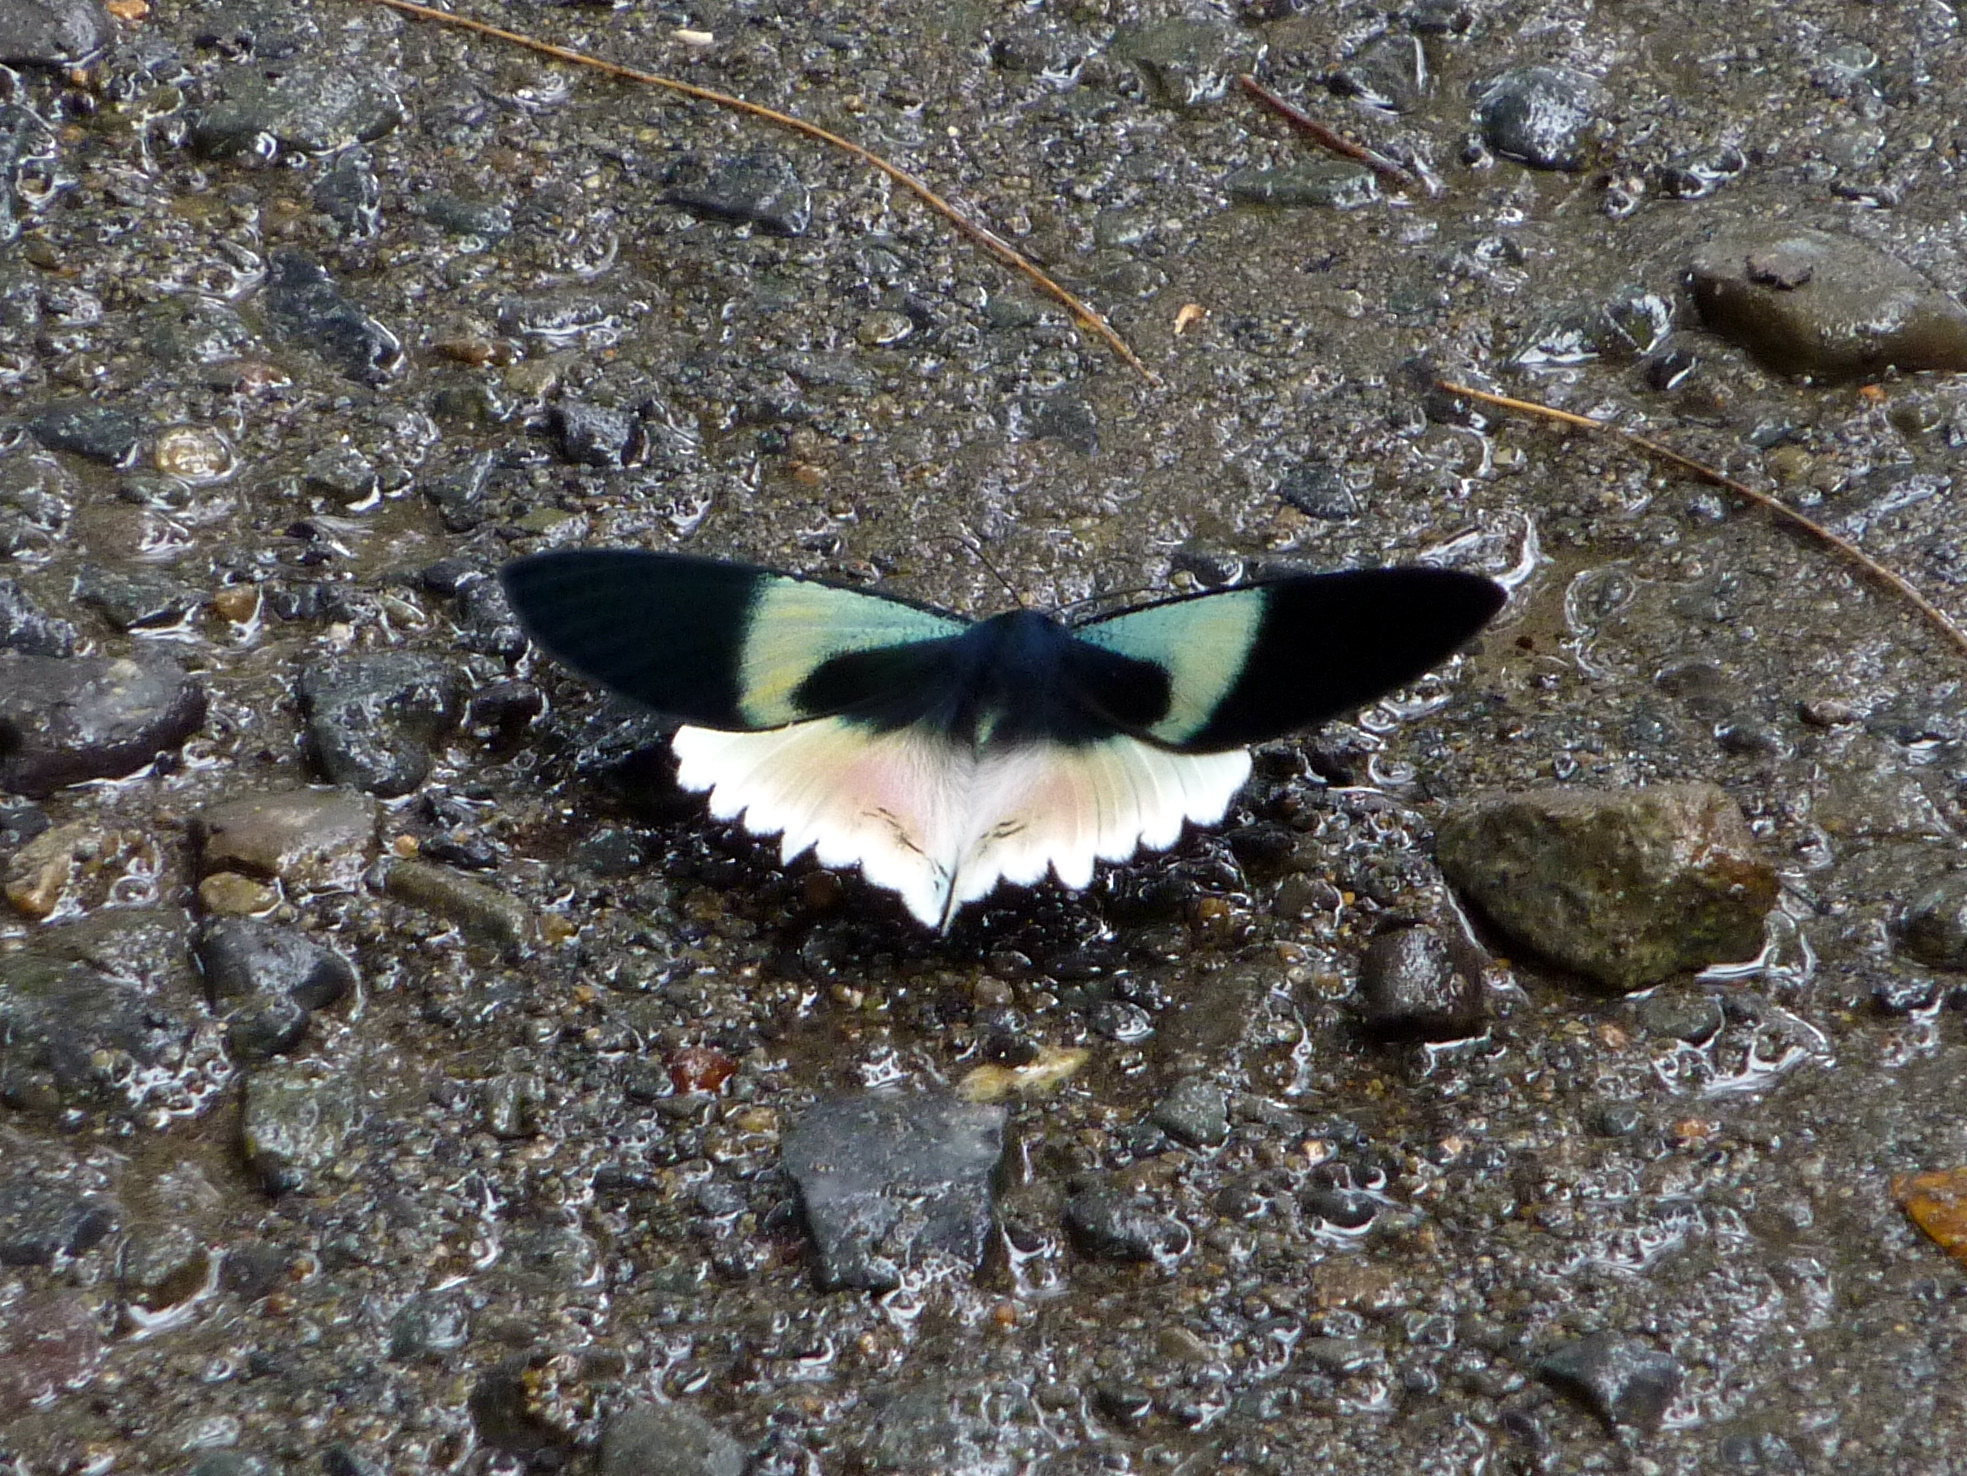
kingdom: Animalia
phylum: Arthropoda
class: Insecta
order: Coleoptera
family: Curculionidae
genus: Alcides
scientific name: Alcides auritus
